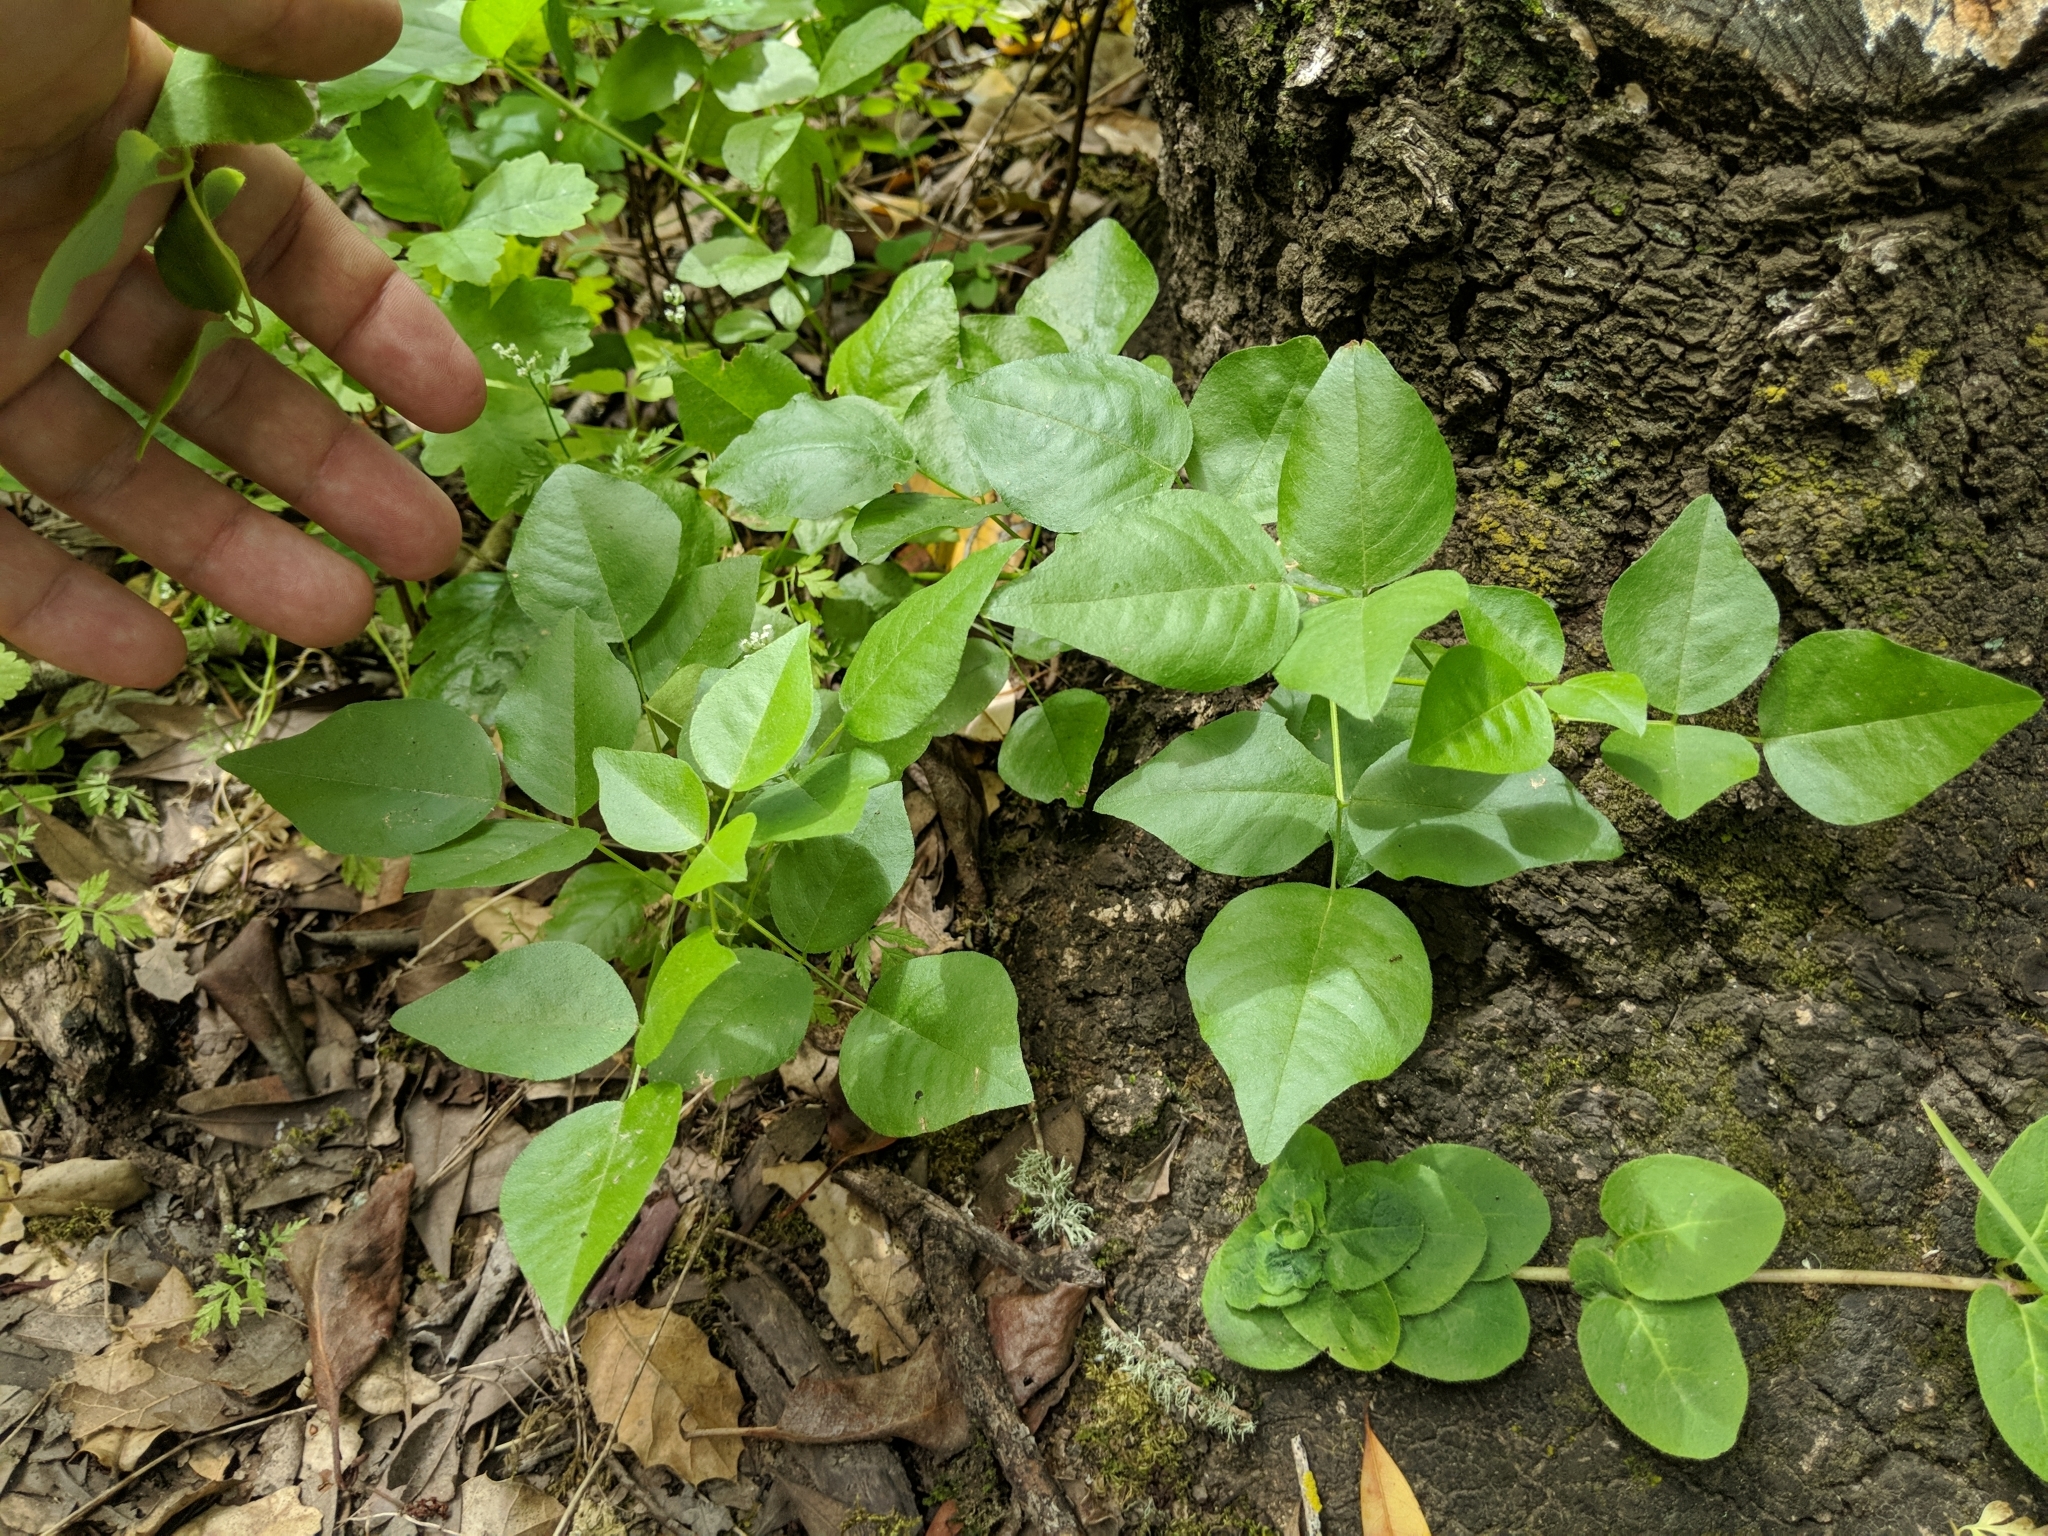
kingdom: Plantae
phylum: Tracheophyta
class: Magnoliopsida
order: Fabales
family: Fabaceae
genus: Rupertia
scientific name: Rupertia physodes
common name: California-tea
